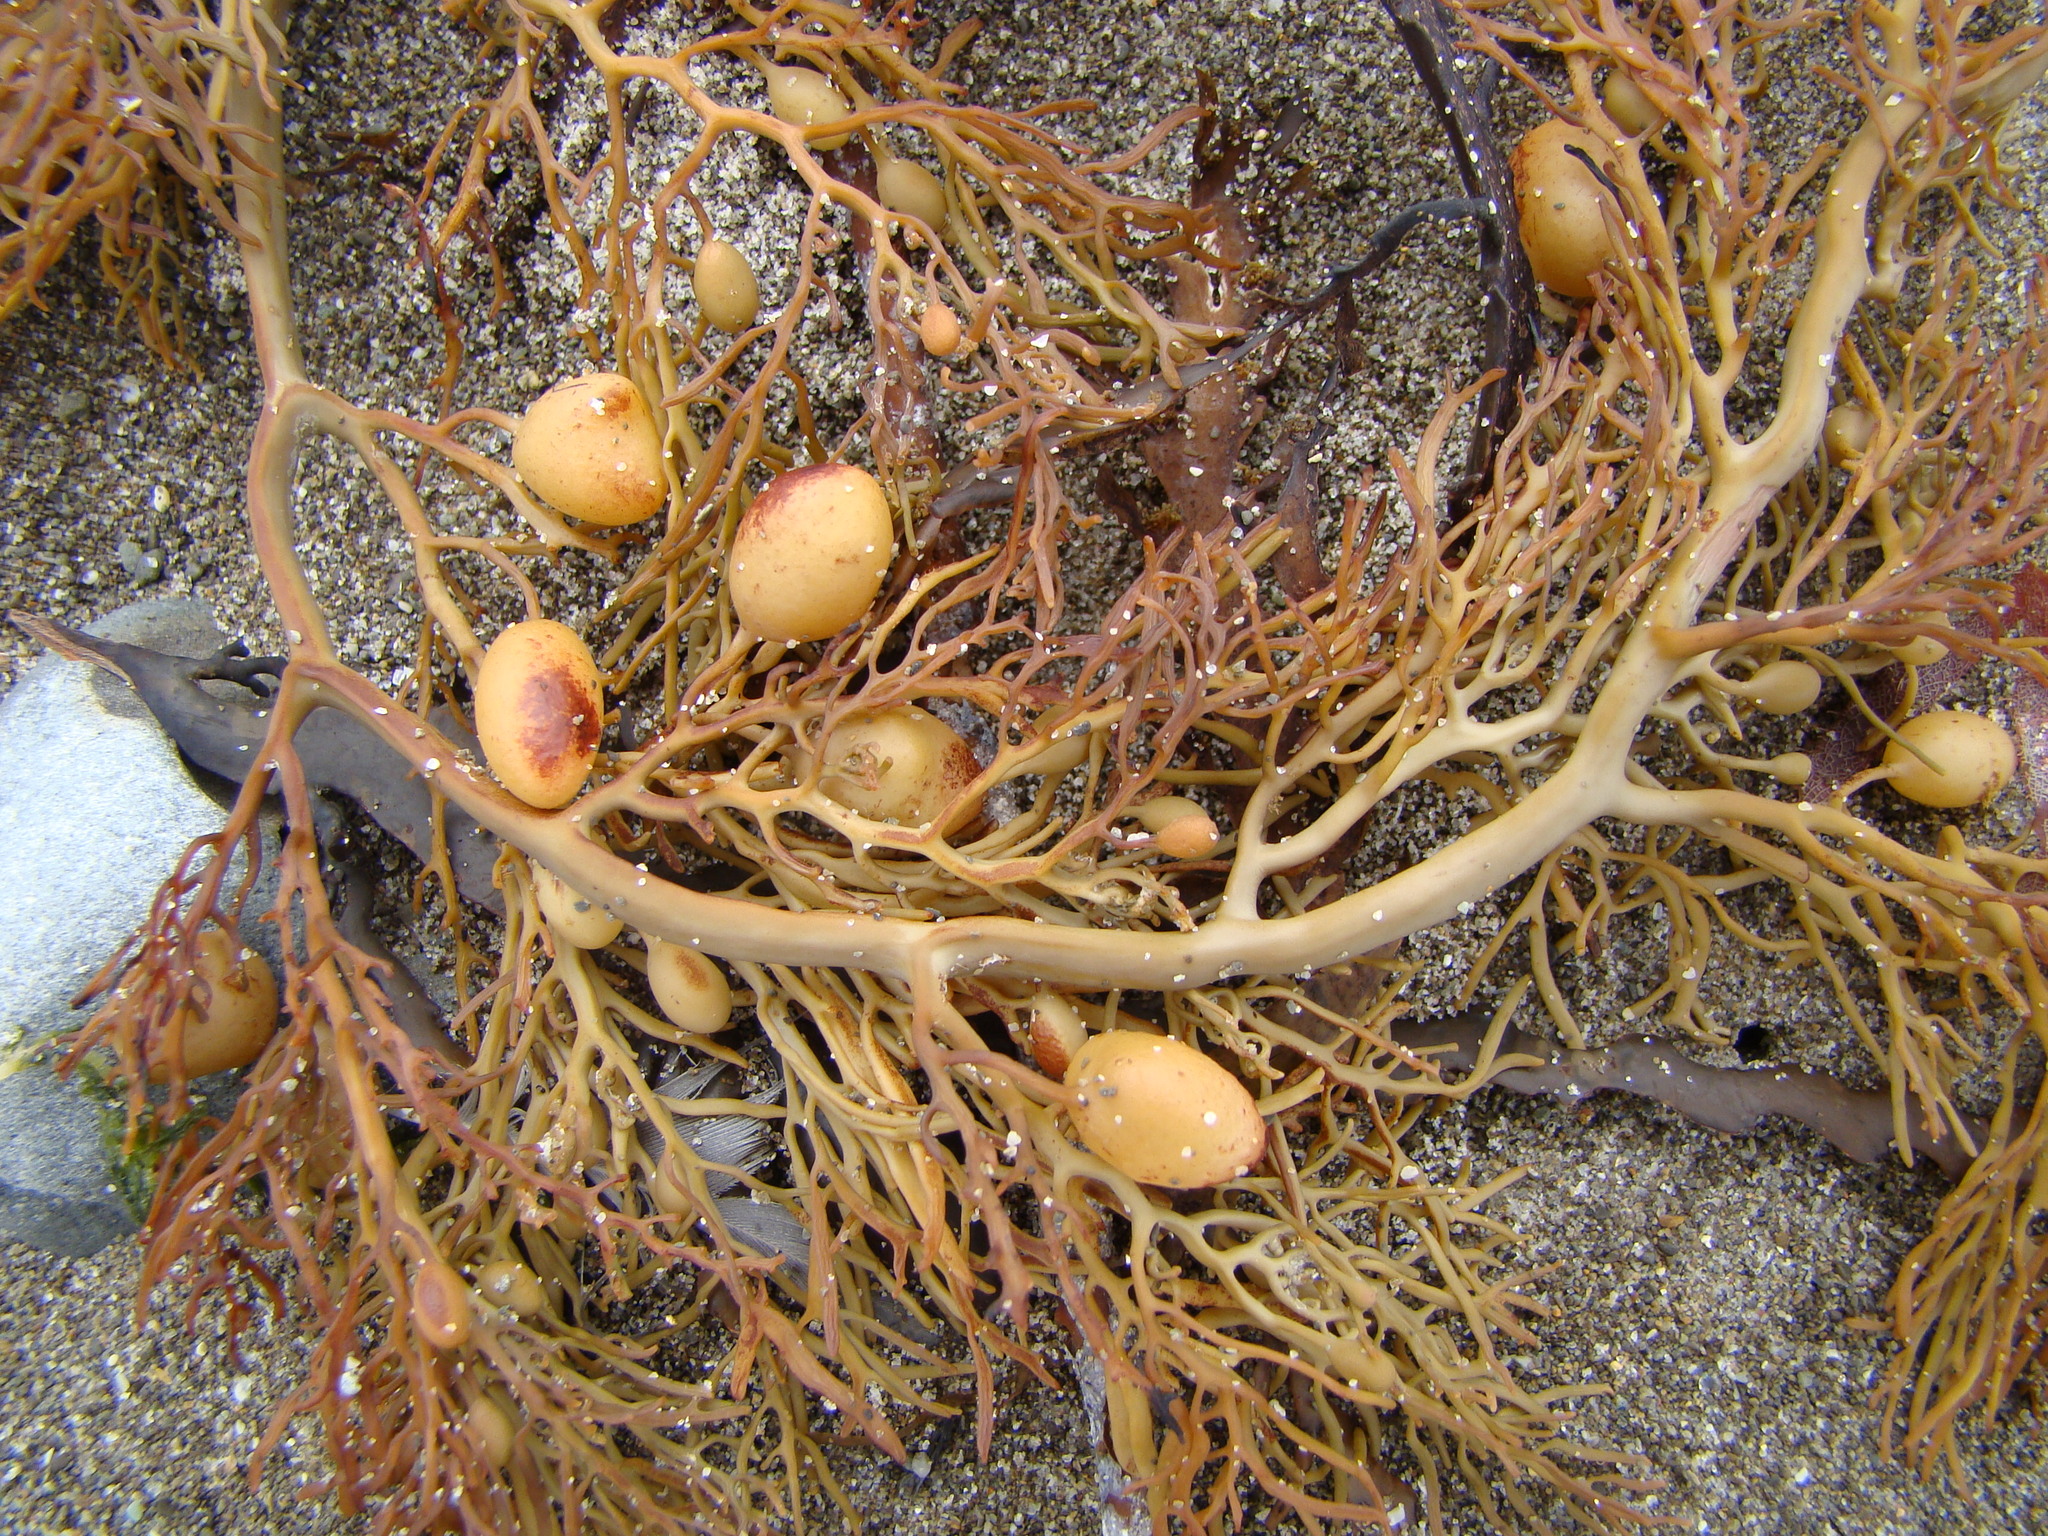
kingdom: Chromista
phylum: Ochrophyta
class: Phaeophyceae
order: Fucales
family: Sargassaceae
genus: Cystophora
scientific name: Cystophora retroflexa
